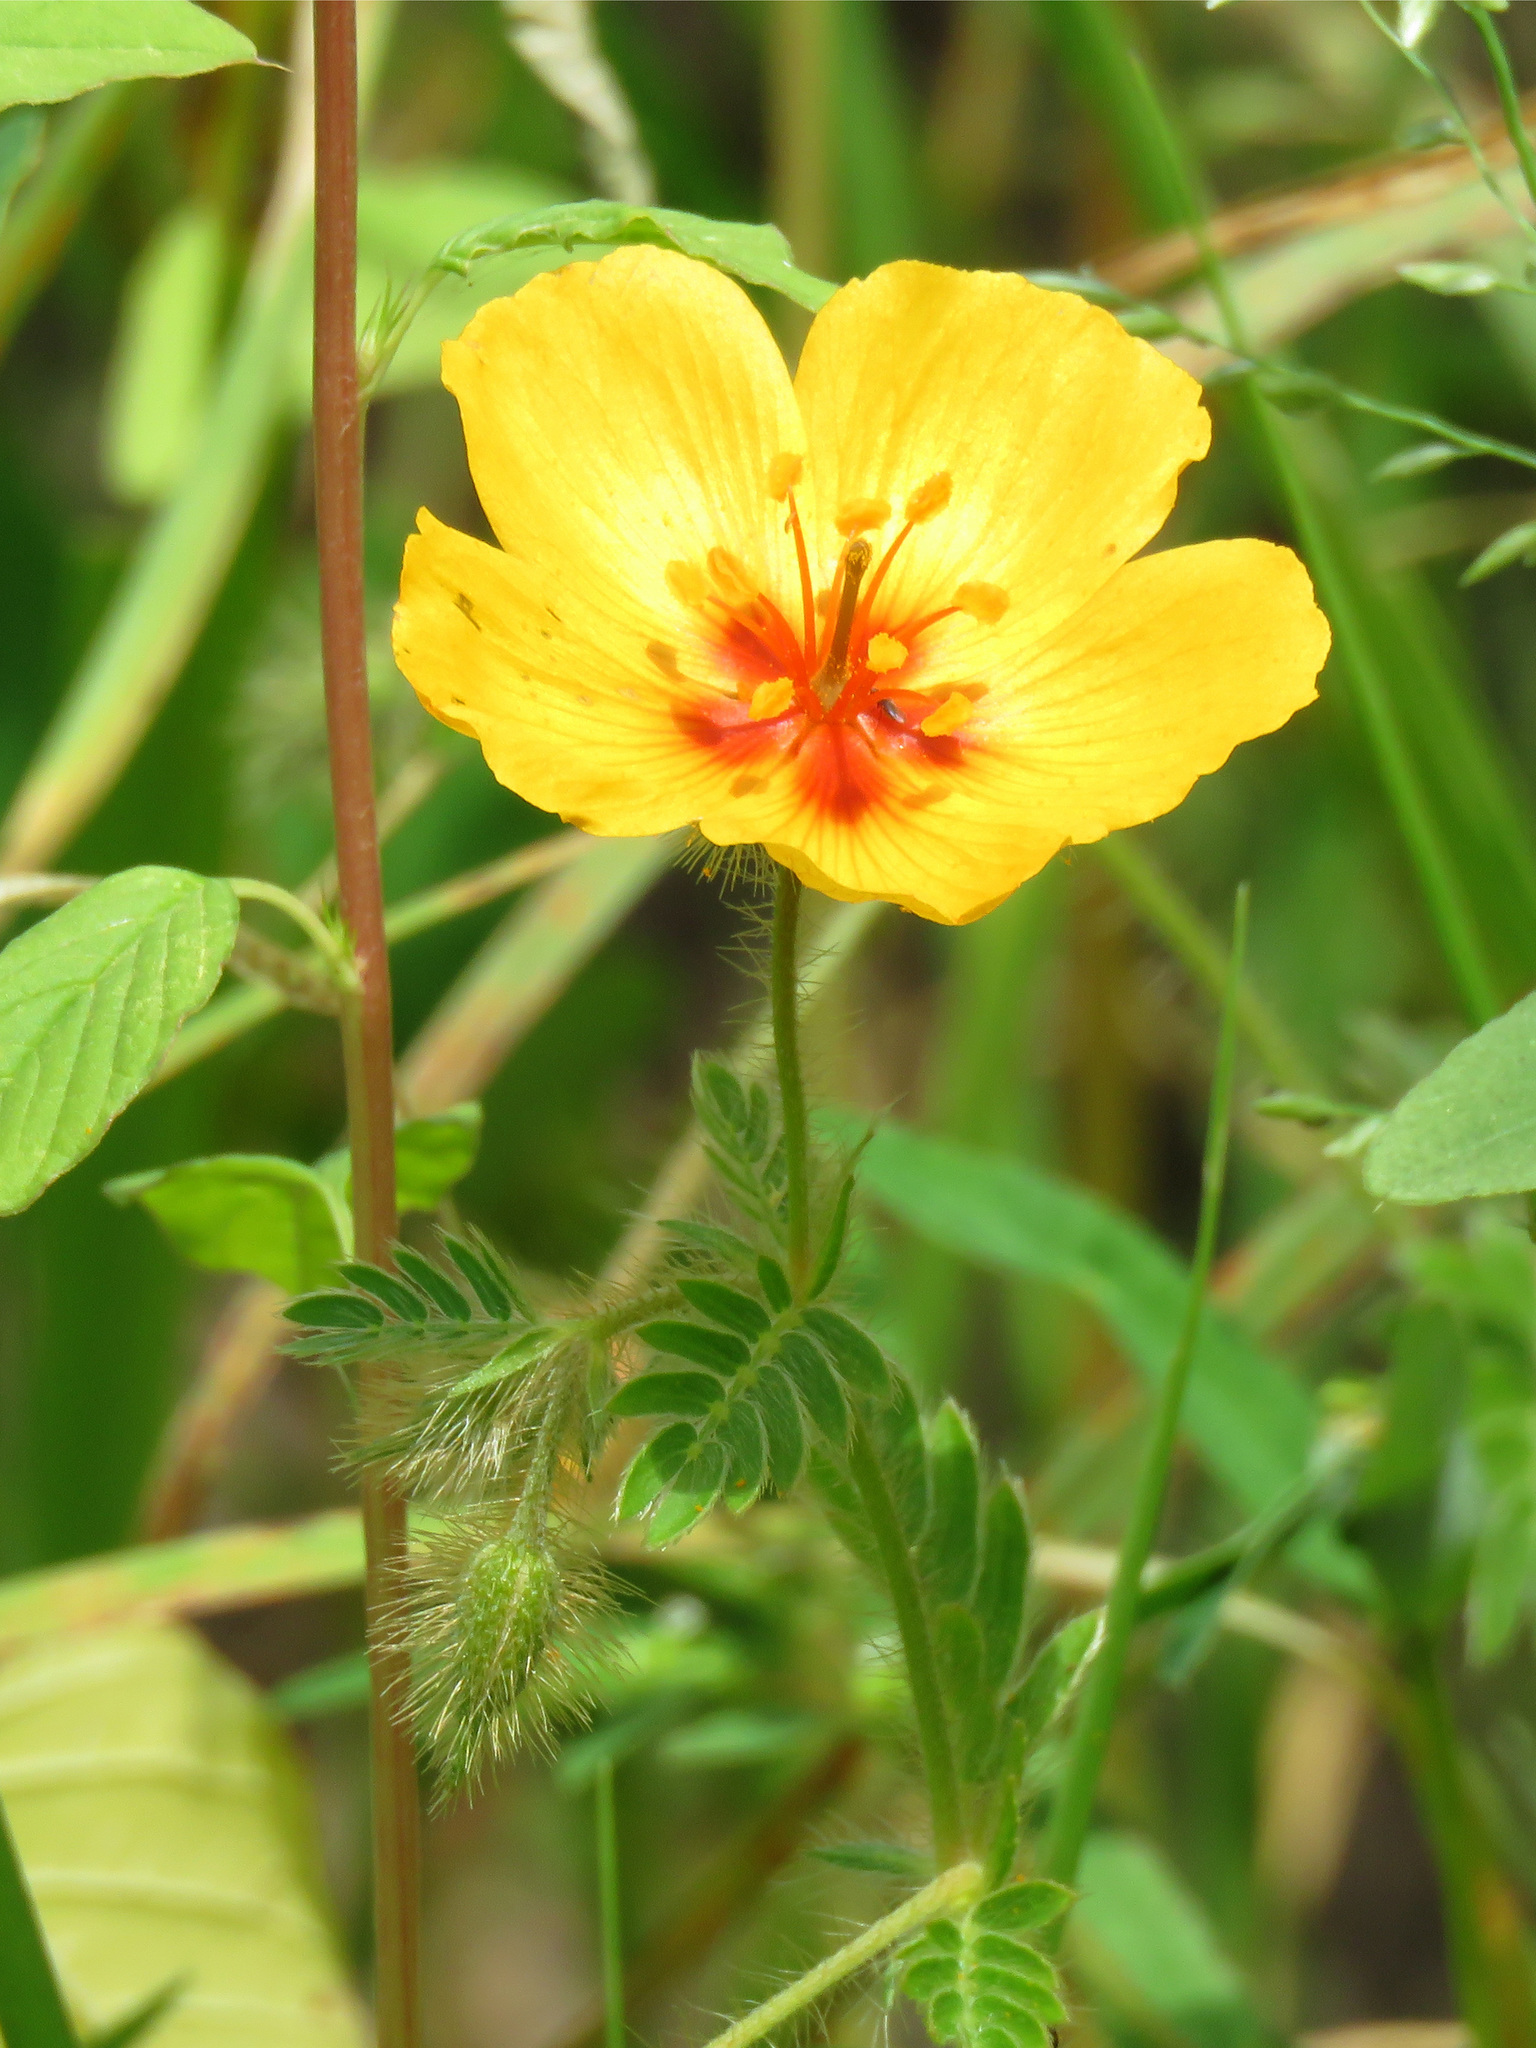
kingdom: Plantae
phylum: Tracheophyta
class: Magnoliopsida
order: Zygophyllales
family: Zygophyllaceae
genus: Kallstroemia
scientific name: Kallstroemia grandiflora
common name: Arizona-poppy
